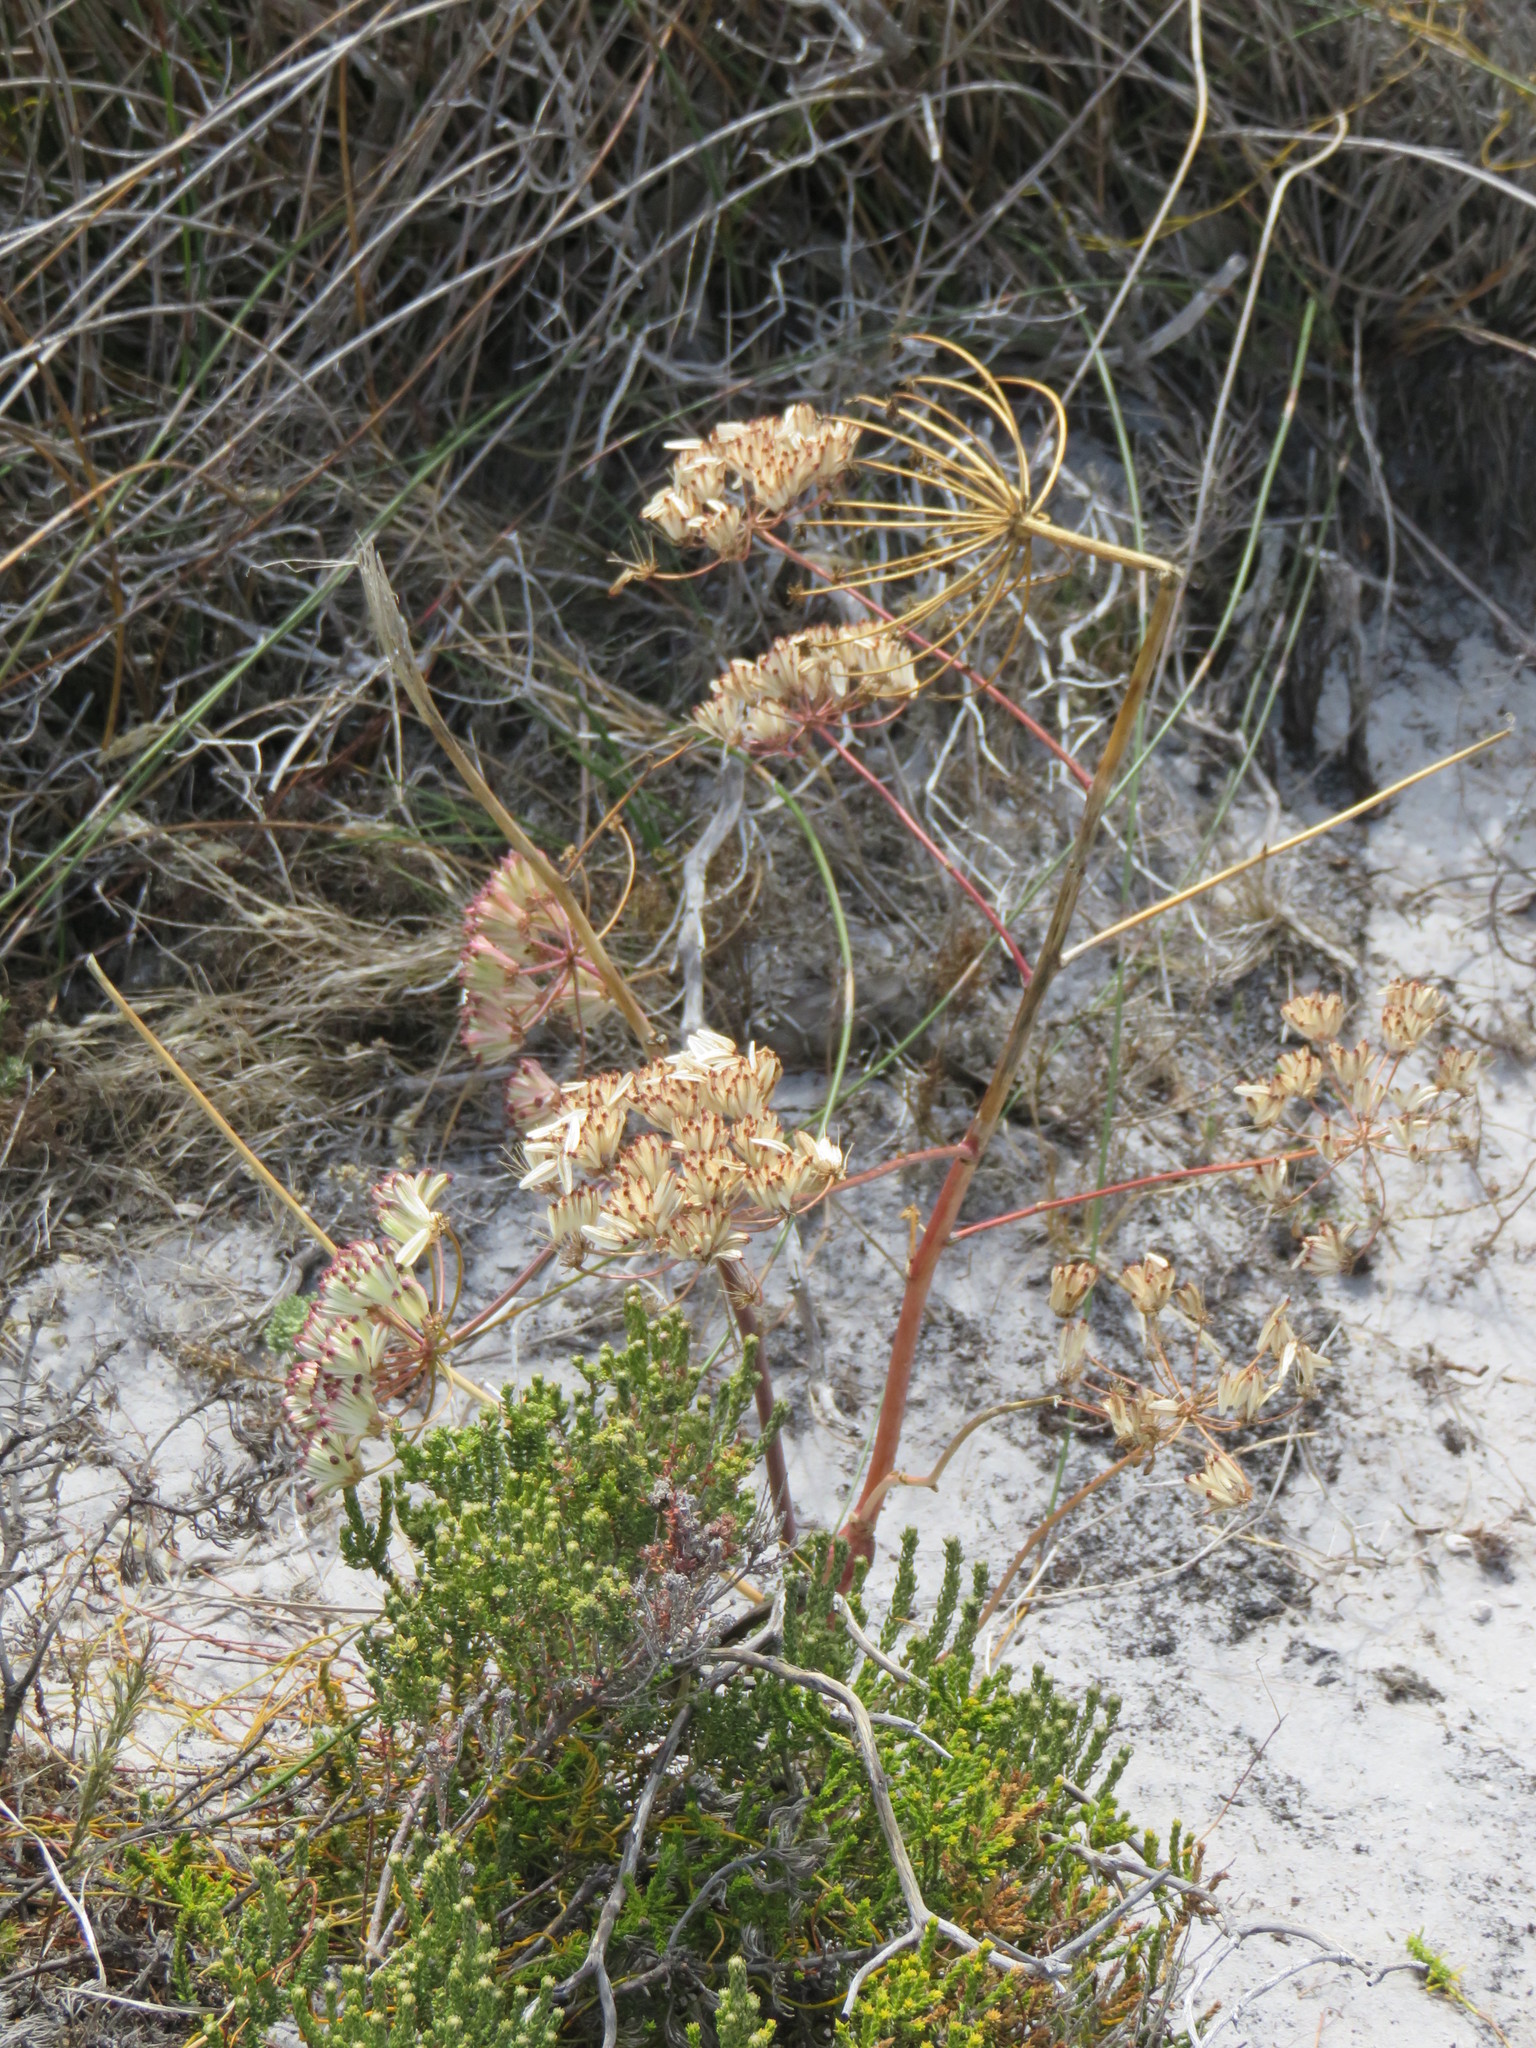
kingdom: Plantae
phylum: Tracheophyta
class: Magnoliopsida
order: Apiales
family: Apiaceae
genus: Annesorhiza
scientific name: Annesorhiza macrocarpa
